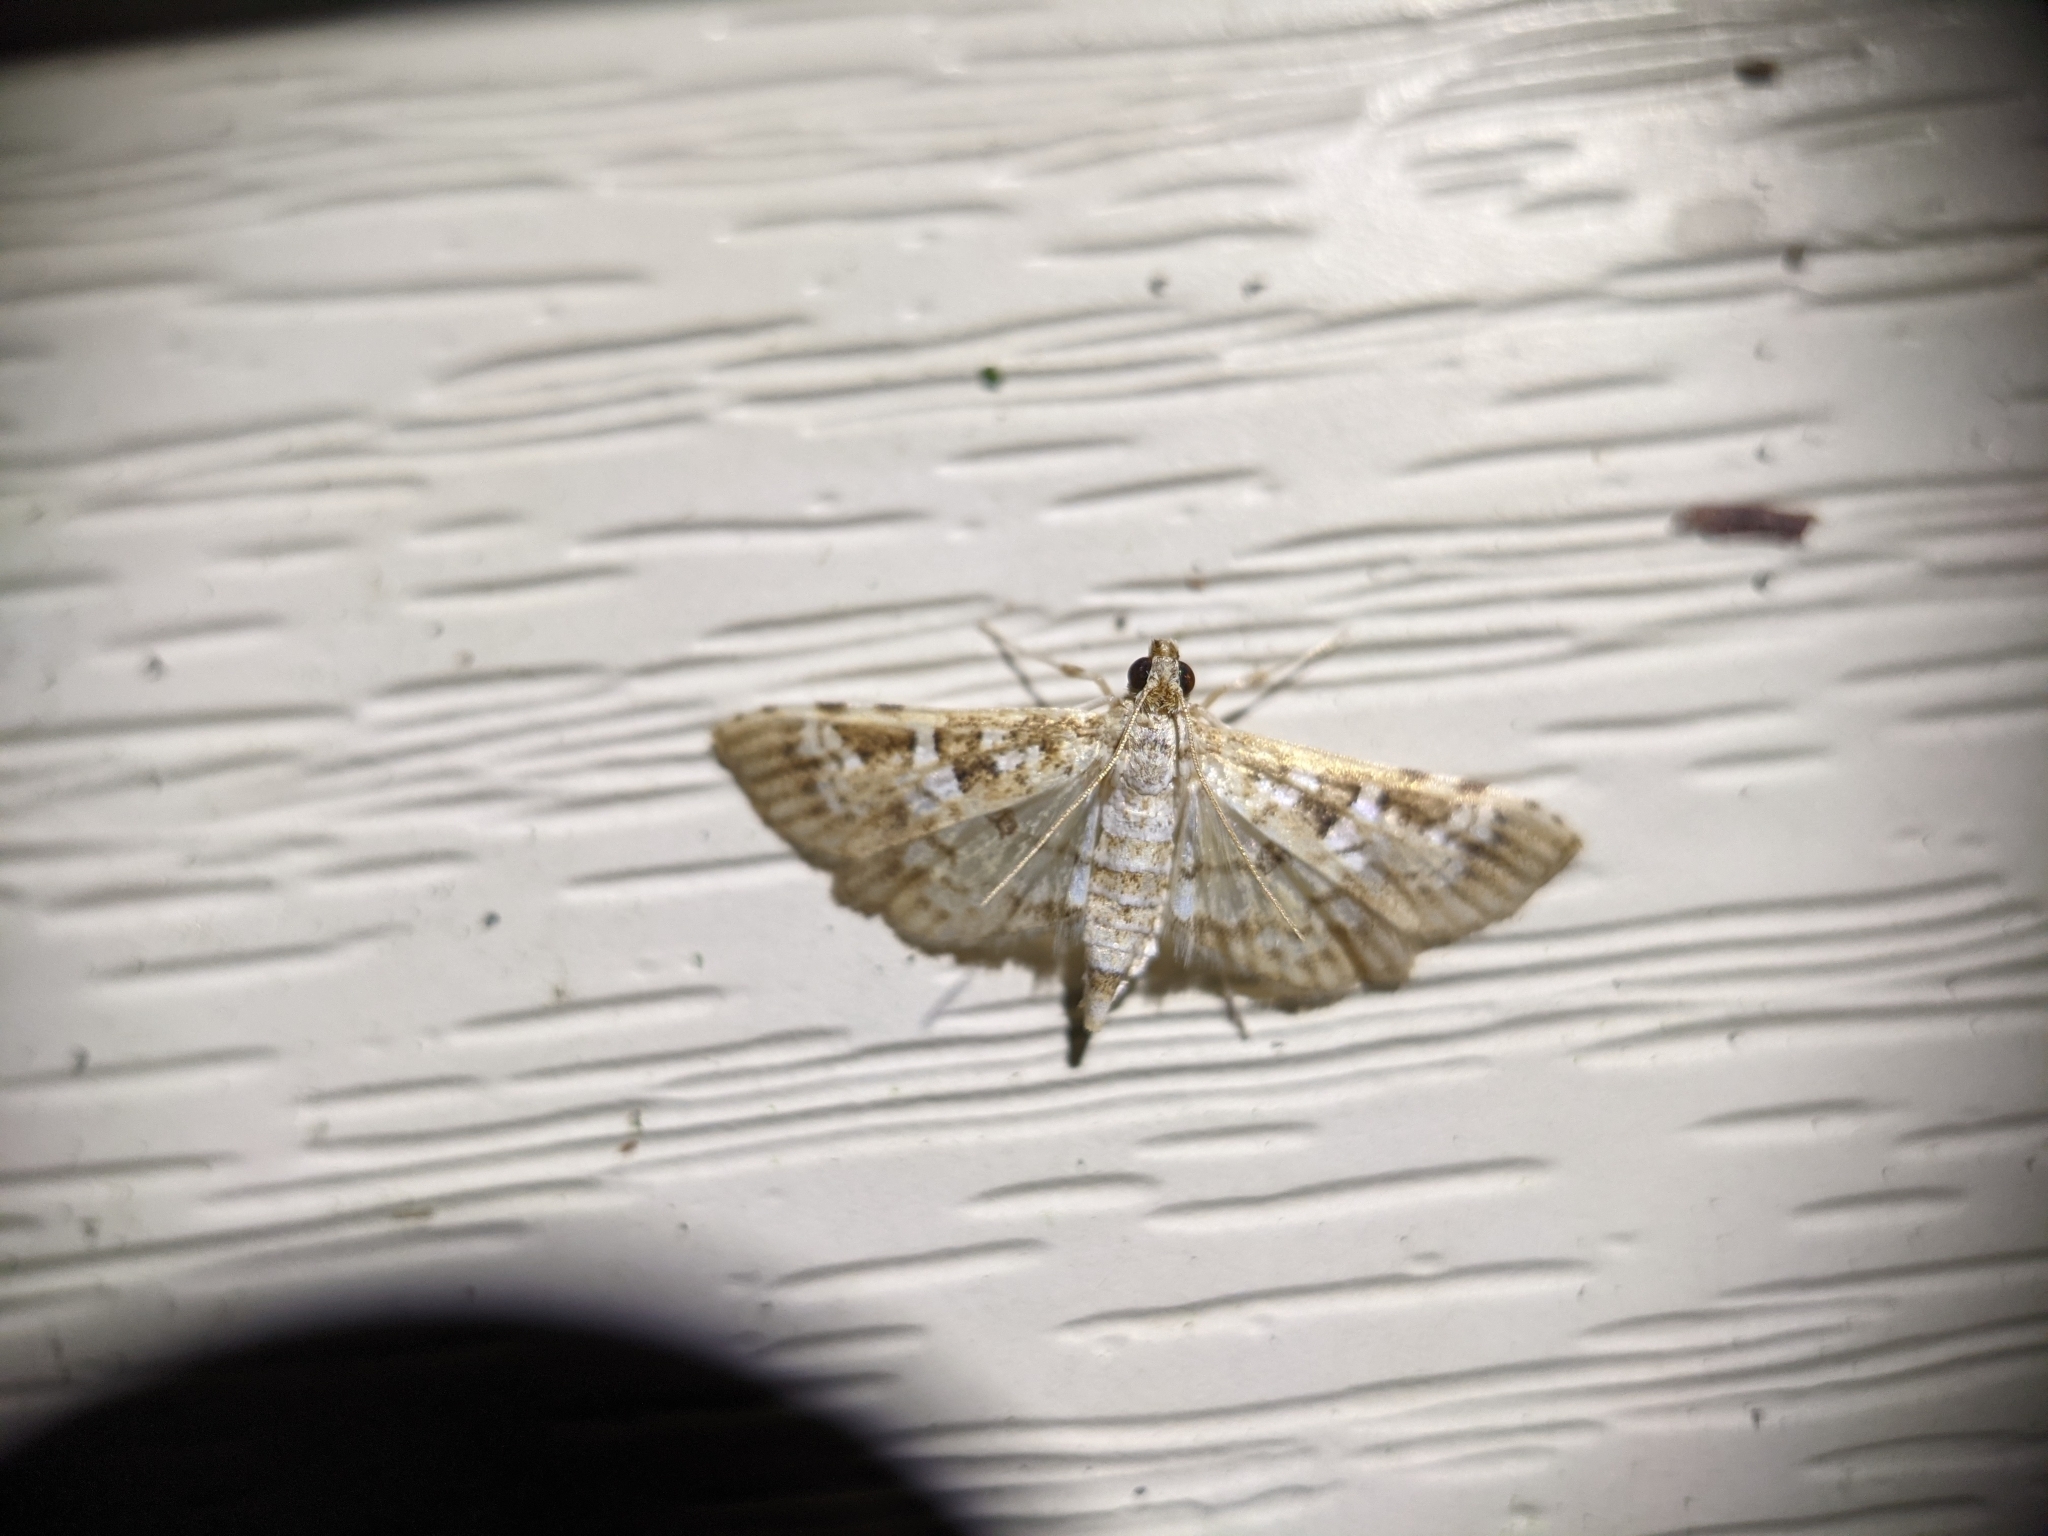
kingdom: Animalia
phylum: Arthropoda
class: Insecta
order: Lepidoptera
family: Crambidae
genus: Samea
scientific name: Samea multiplicalis
